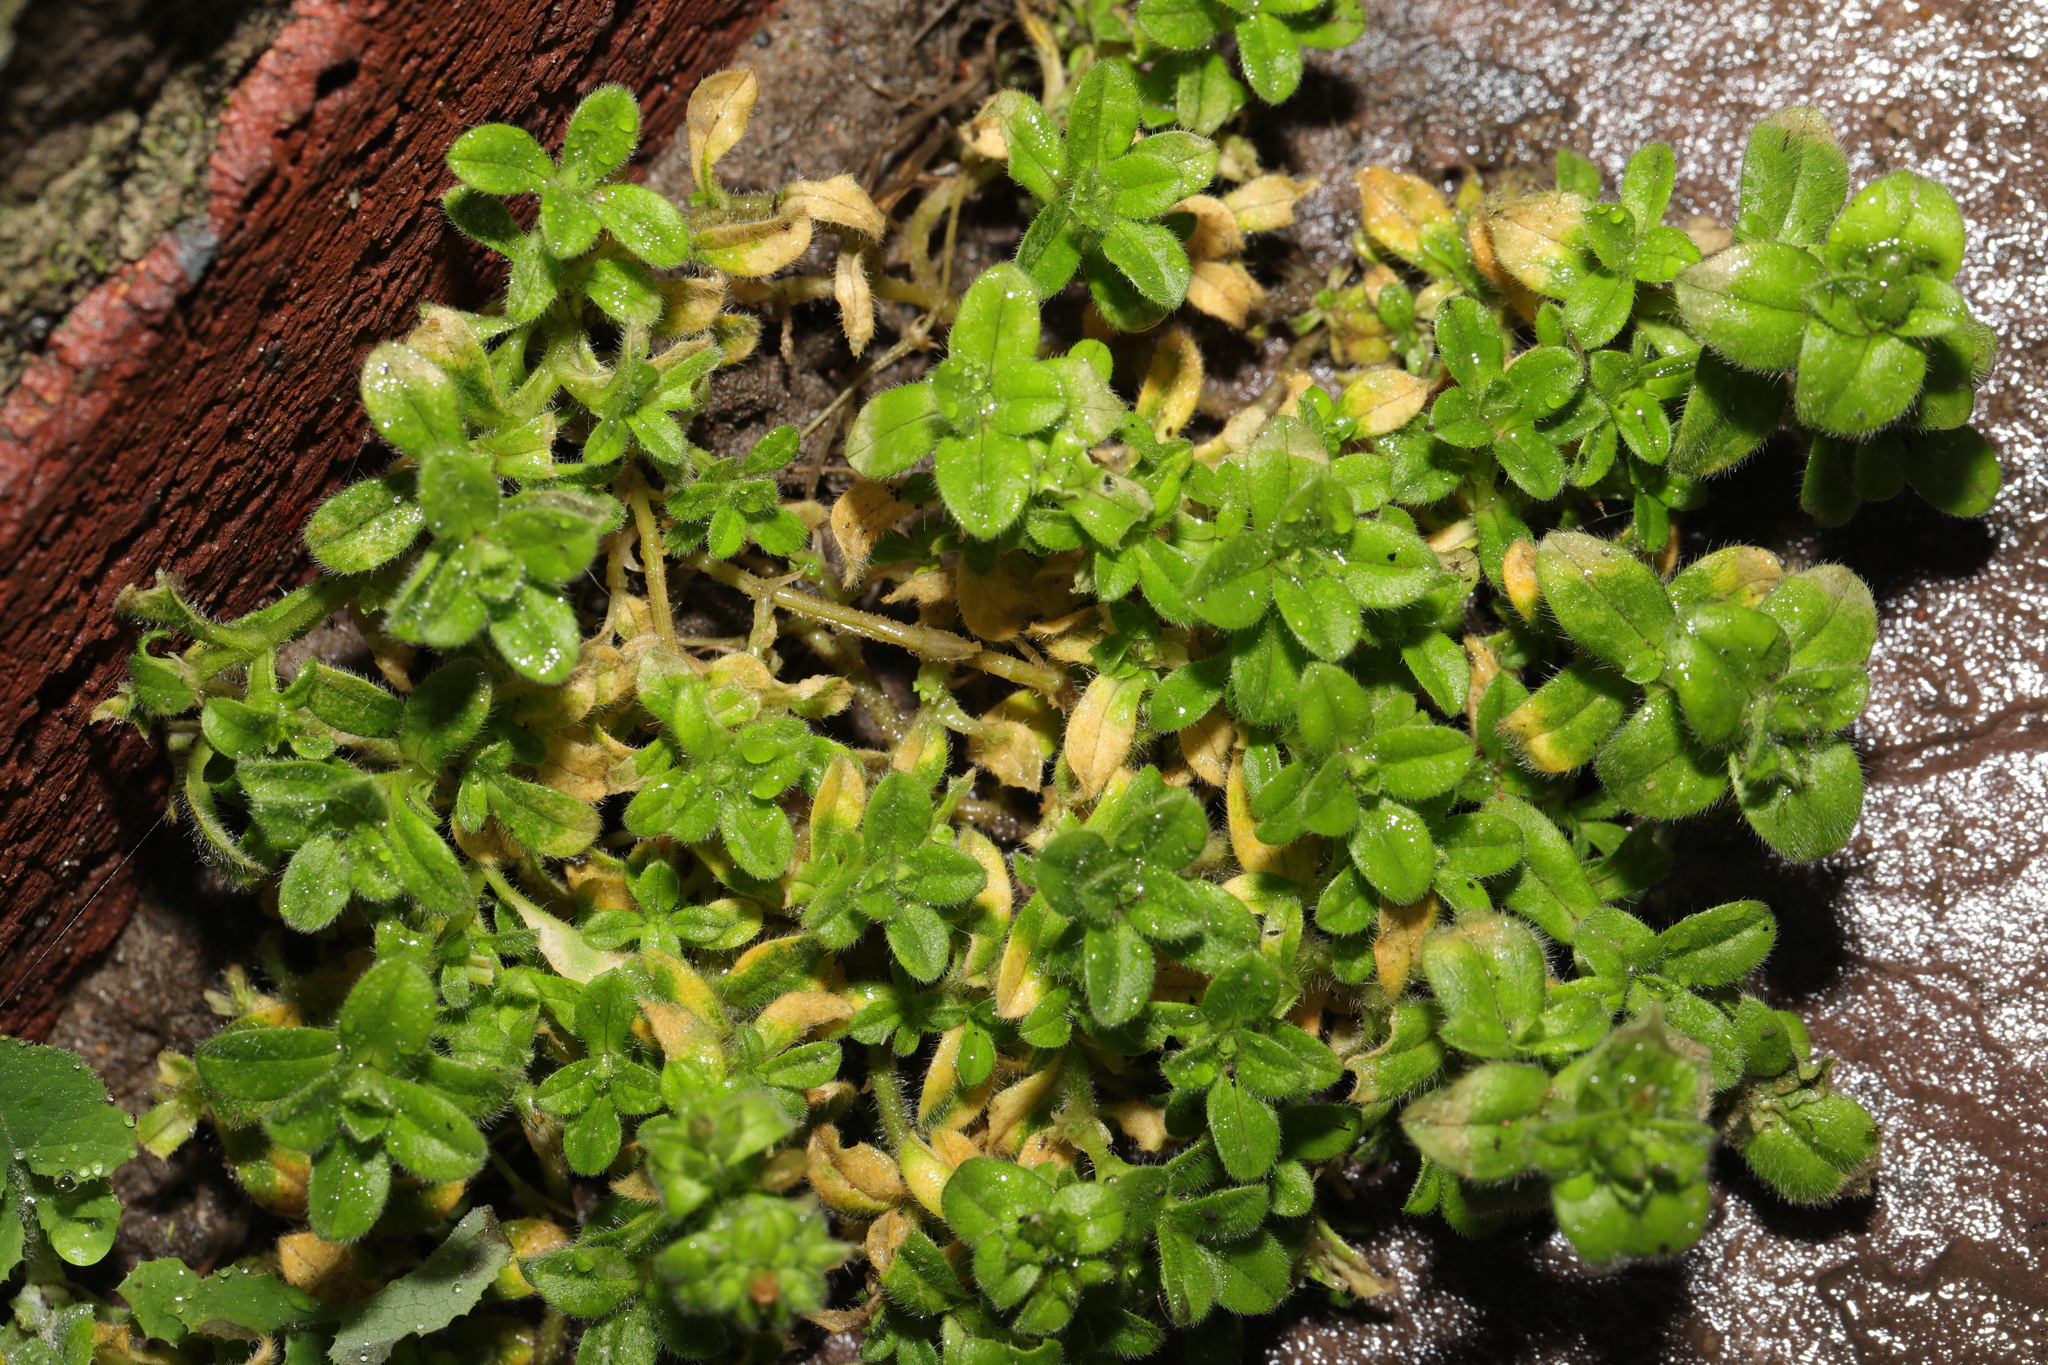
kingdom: Plantae
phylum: Tracheophyta
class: Magnoliopsida
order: Lamiales
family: Plantaginaceae
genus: Veronica
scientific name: Veronica arvensis
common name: Corn speedwell
